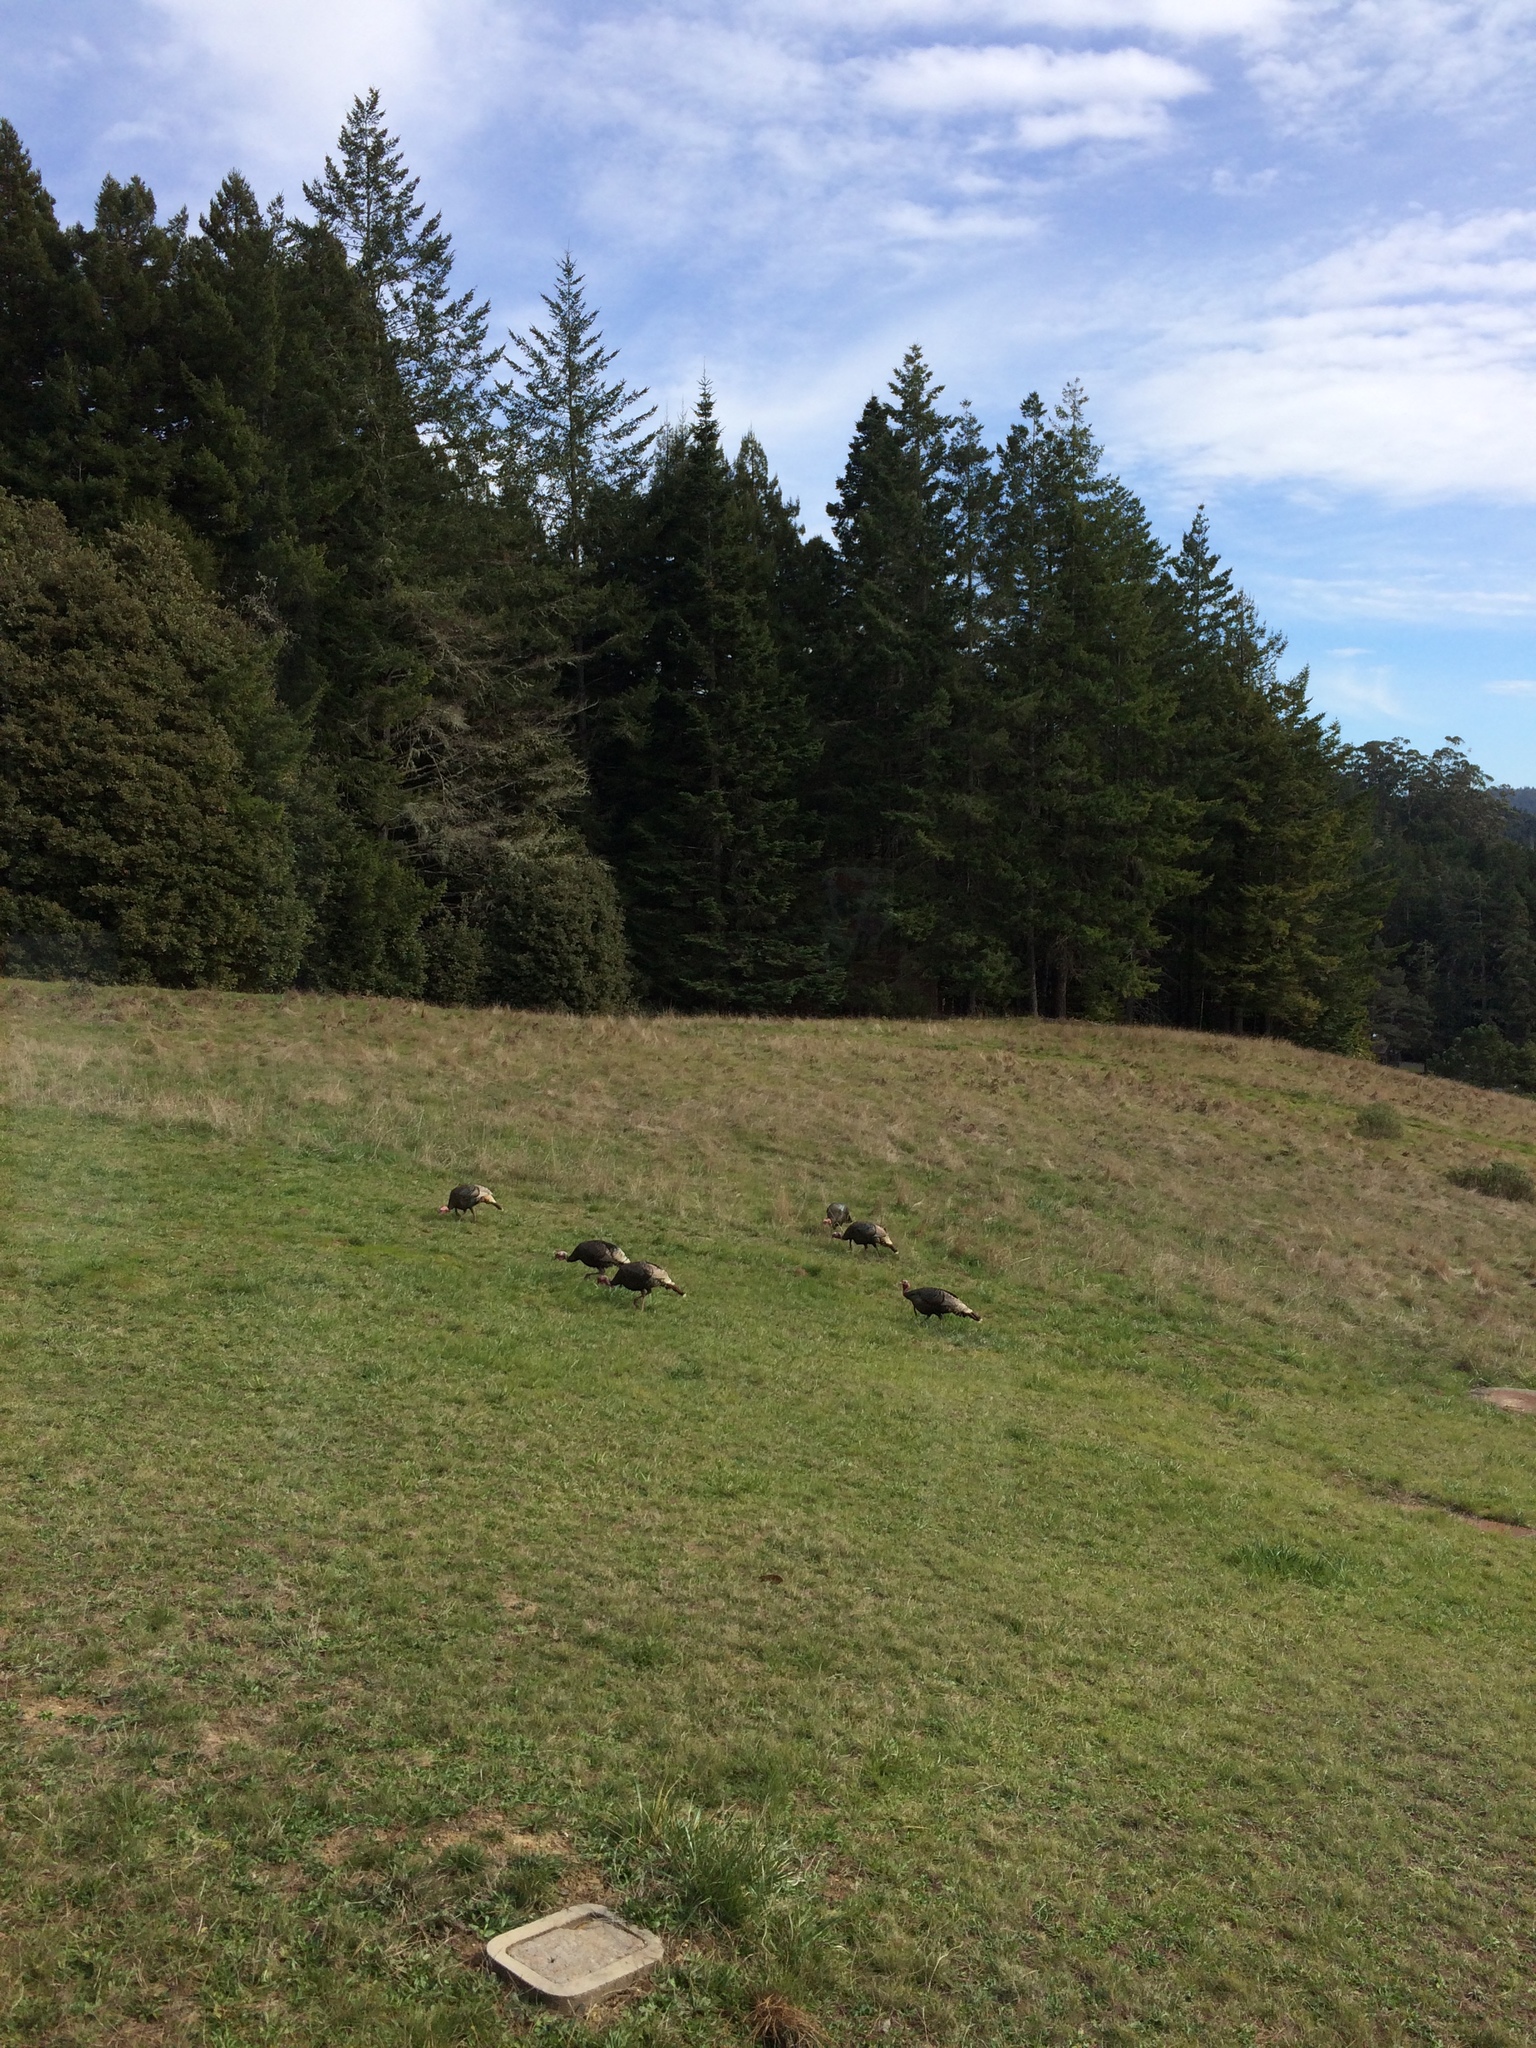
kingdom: Animalia
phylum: Chordata
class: Aves
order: Galliformes
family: Phasianidae
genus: Meleagris
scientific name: Meleagris gallopavo
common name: Wild turkey
